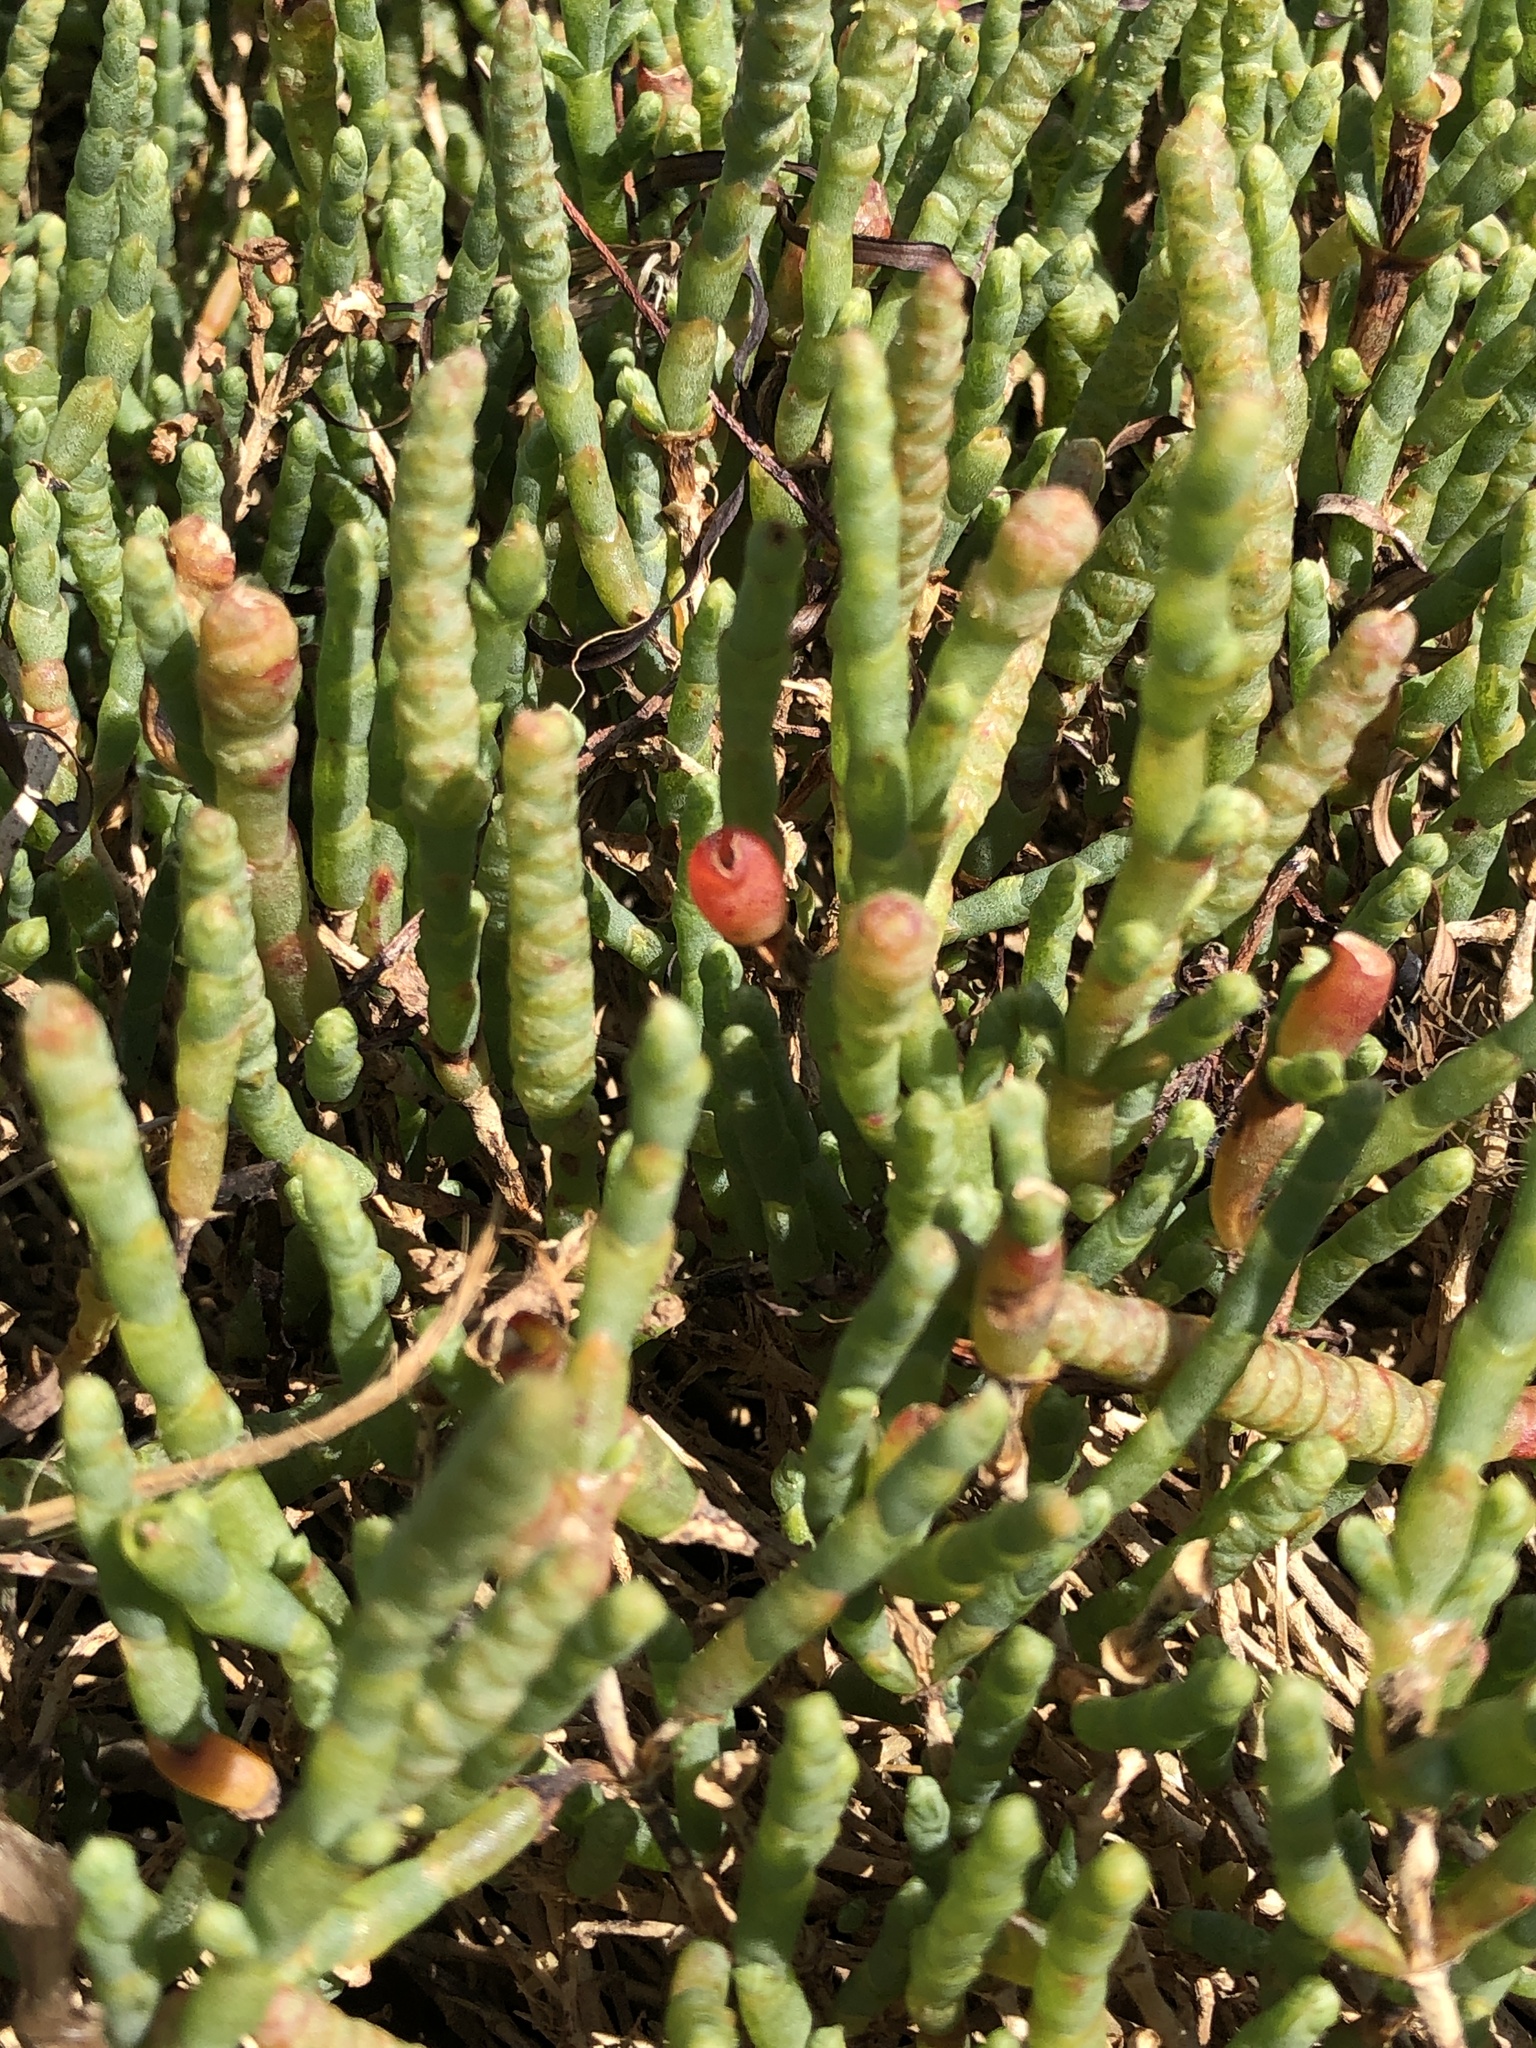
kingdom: Plantae
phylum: Tracheophyta
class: Magnoliopsida
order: Caryophyllales
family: Amaranthaceae
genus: Salicornia
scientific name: Salicornia quinqueflora
